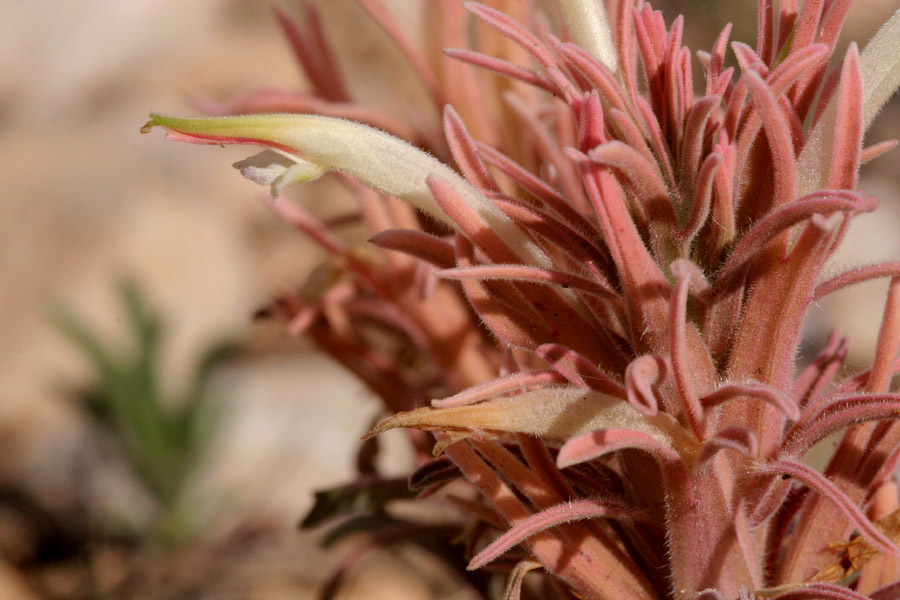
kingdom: Plantae
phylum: Tracheophyta
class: Magnoliopsida
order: Lamiales
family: Orobanchaceae
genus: Castilleja
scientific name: Castilleja sessiliflora
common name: Downy paintbrush
